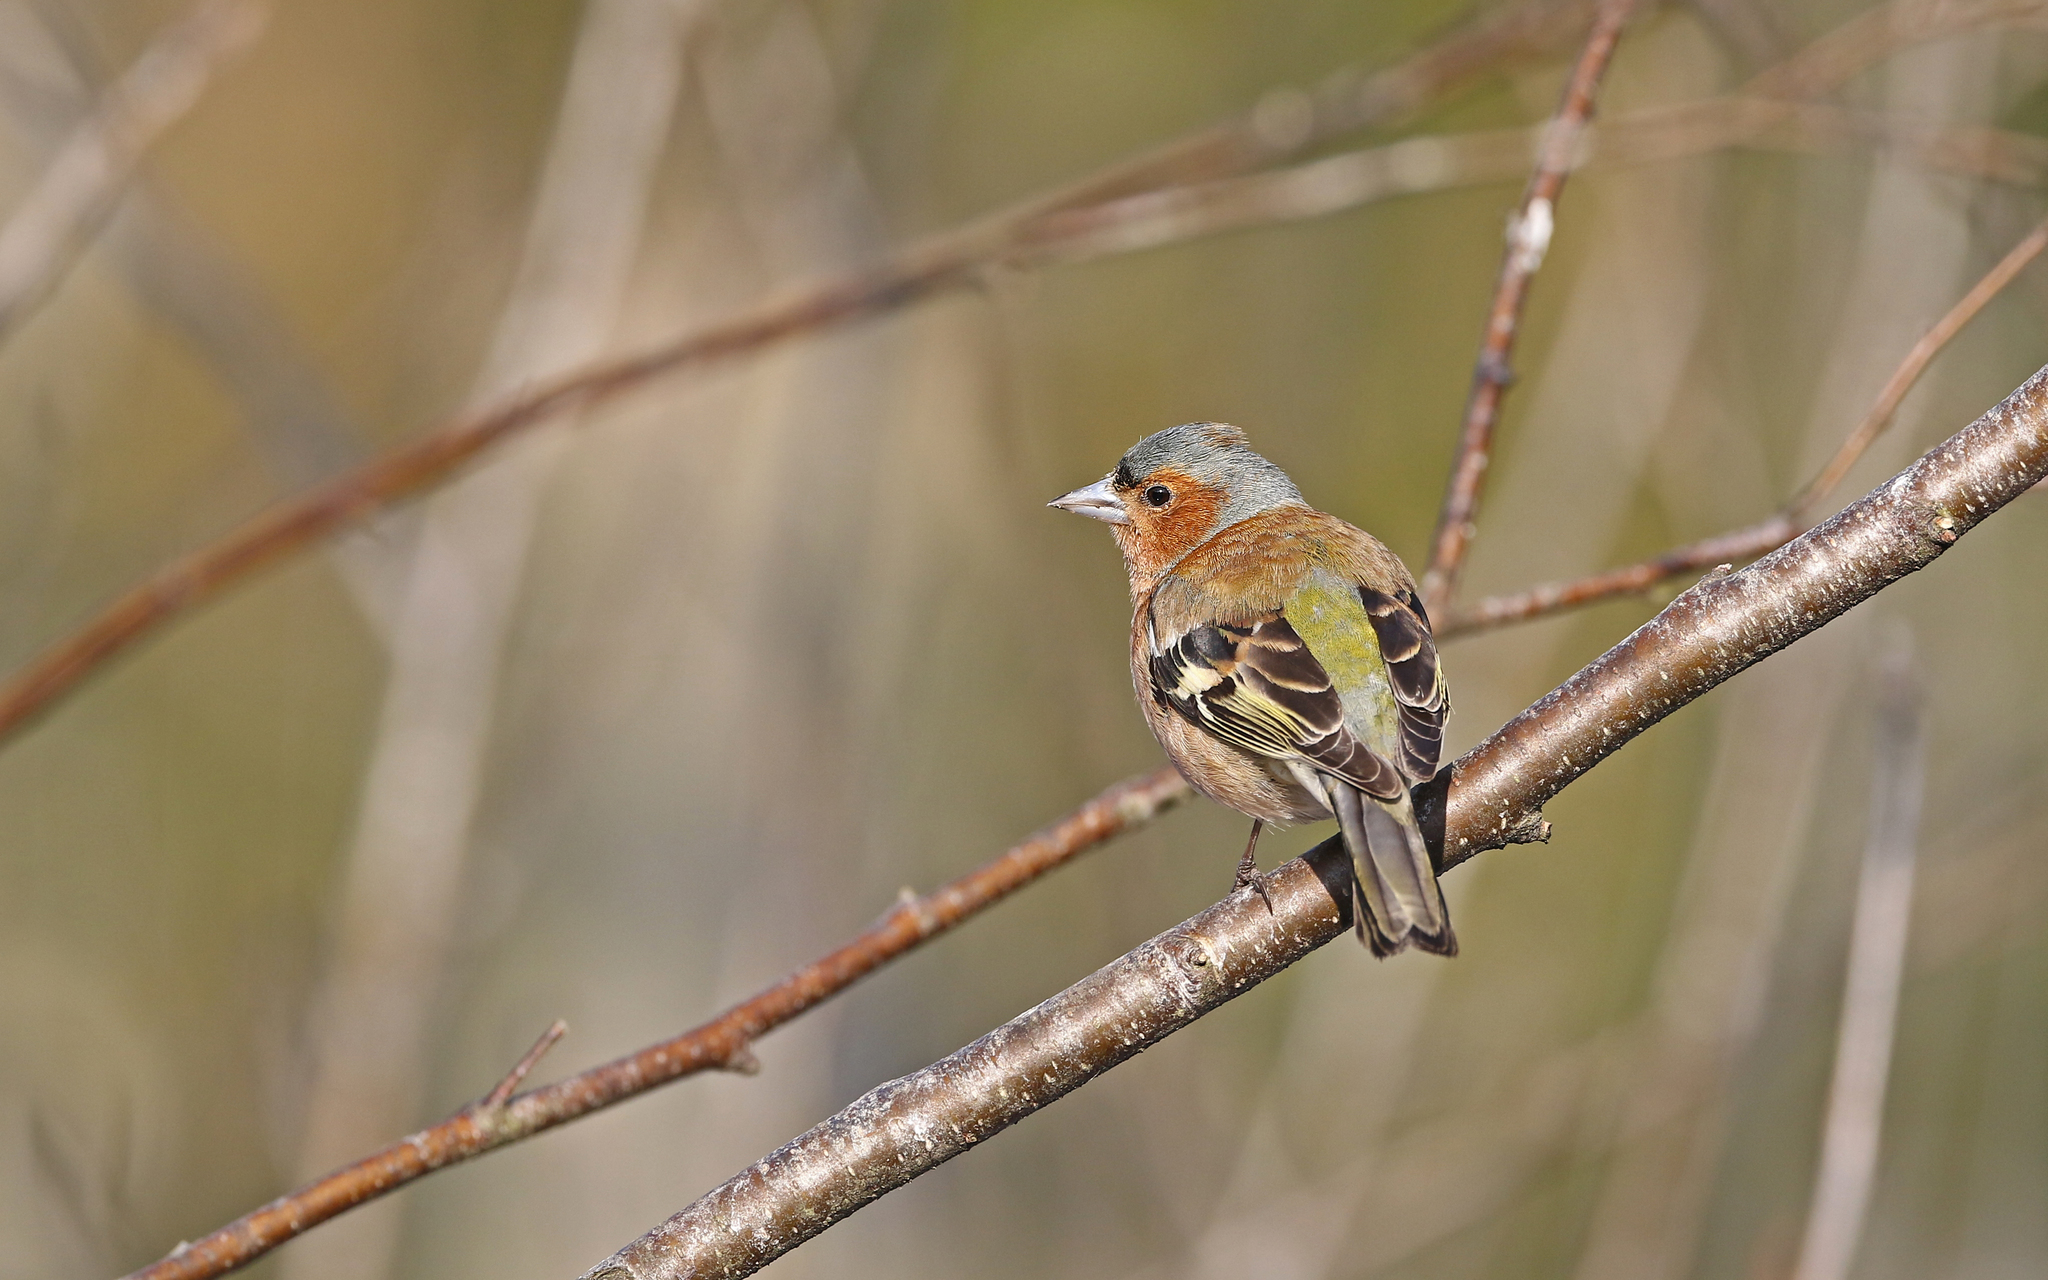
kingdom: Animalia
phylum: Chordata
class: Aves
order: Passeriformes
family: Fringillidae
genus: Fringilla
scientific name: Fringilla coelebs
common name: Common chaffinch
